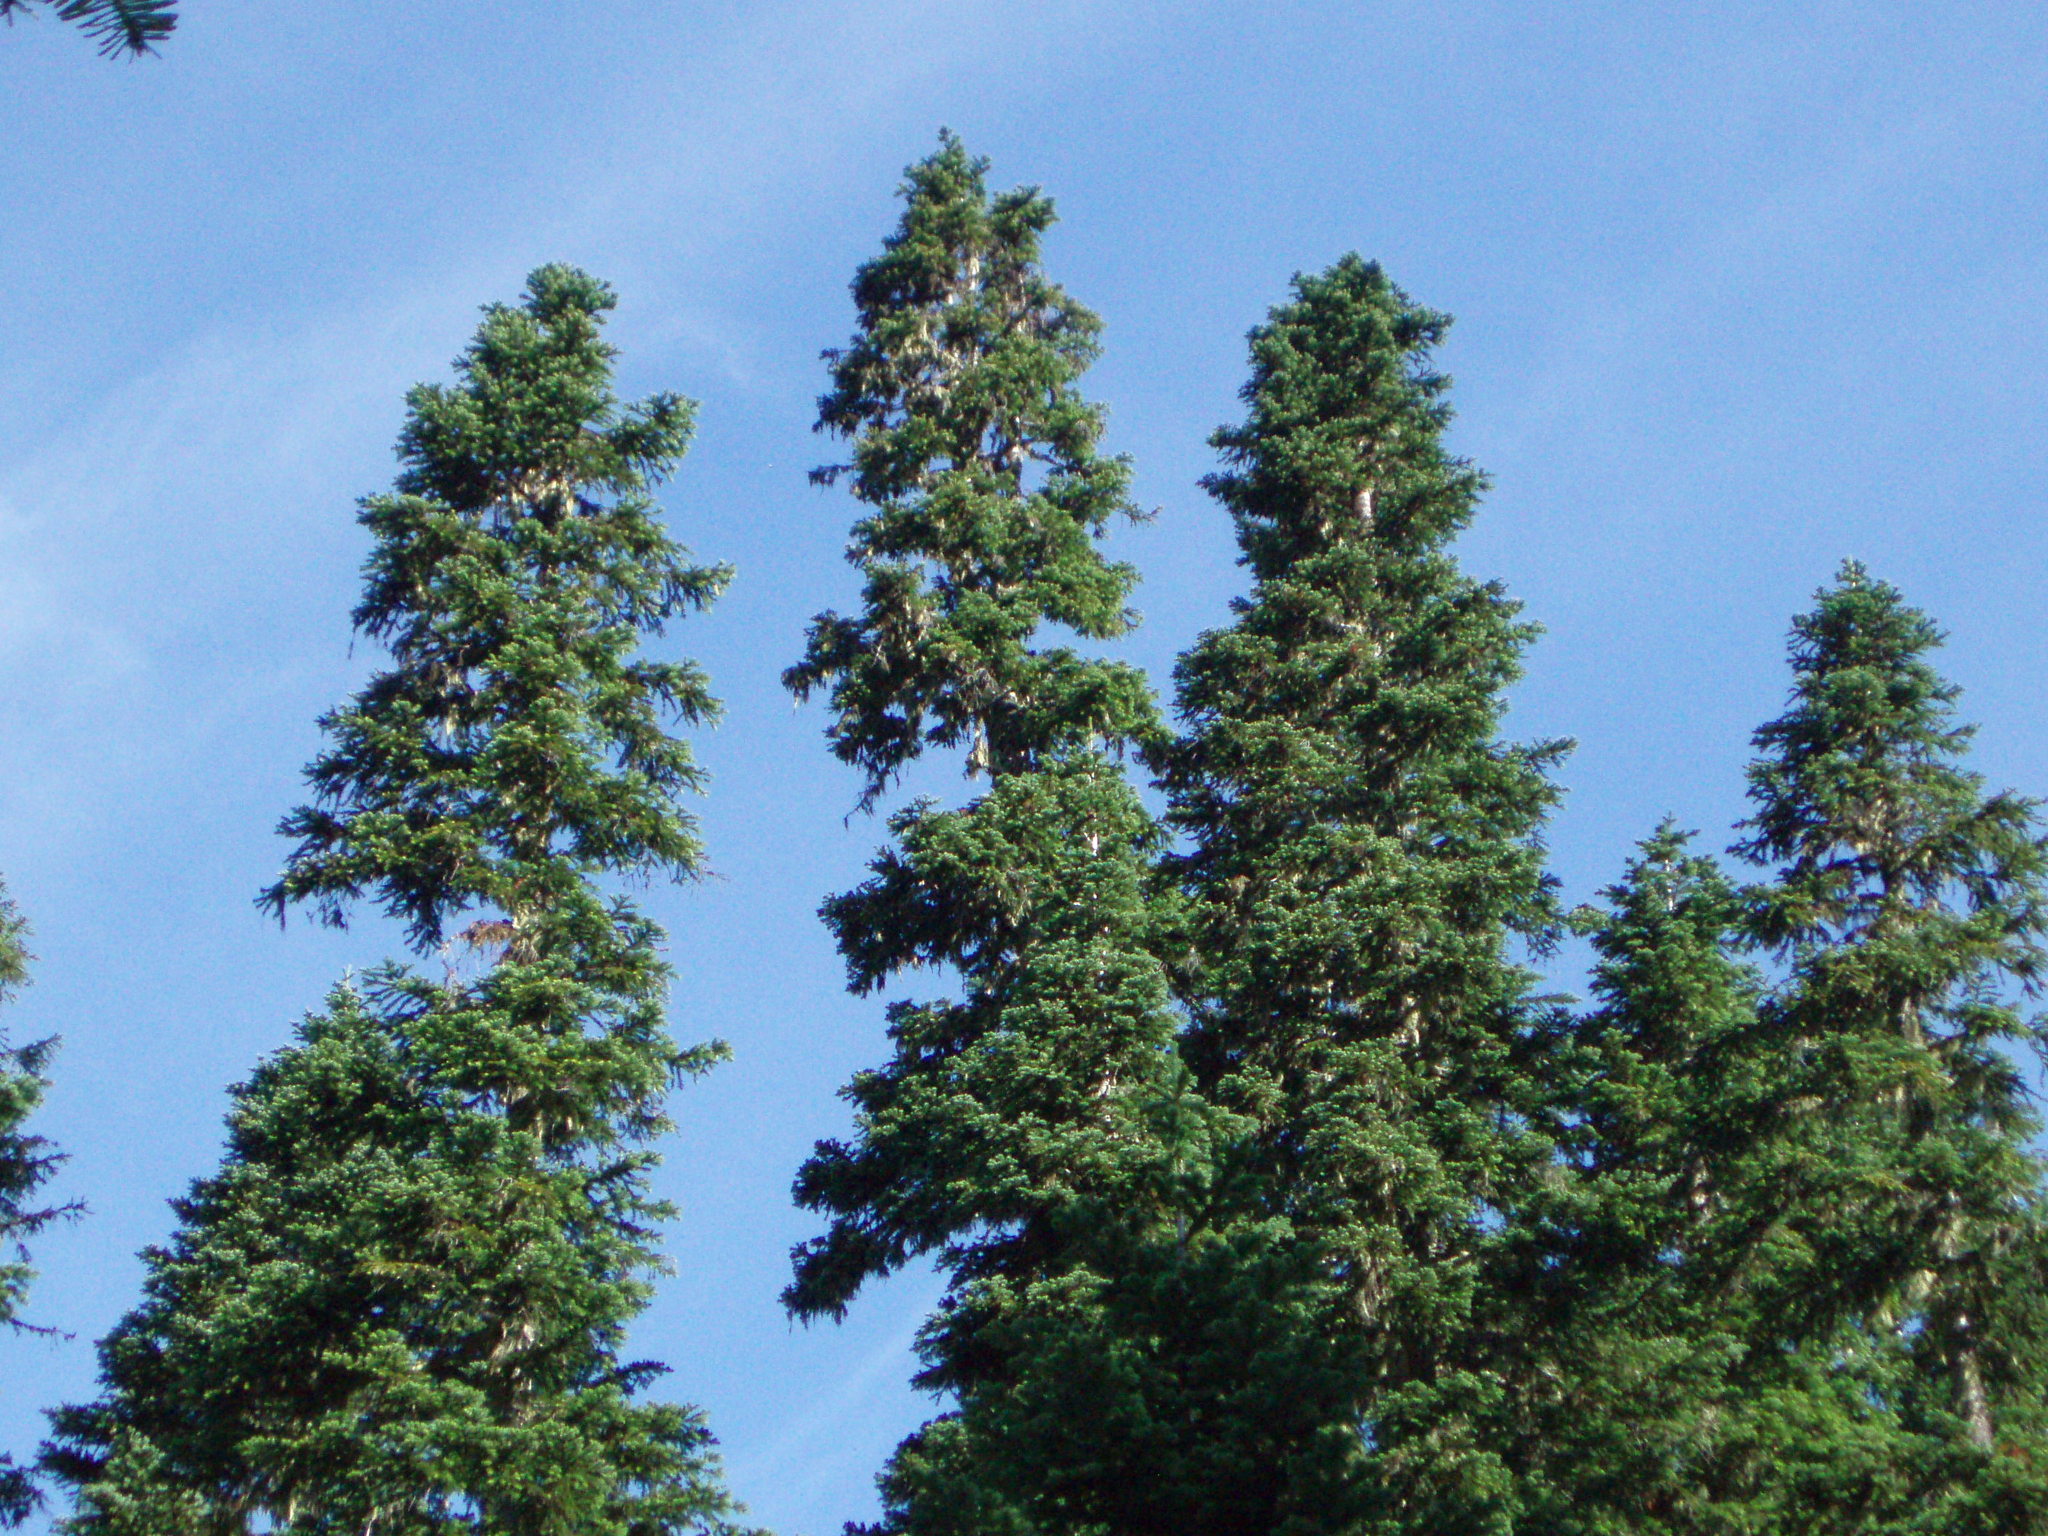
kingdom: Plantae
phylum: Tracheophyta
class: Pinopsida
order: Pinales
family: Pinaceae
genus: Abies
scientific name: Abies amabilis
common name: Pacific silver fir
